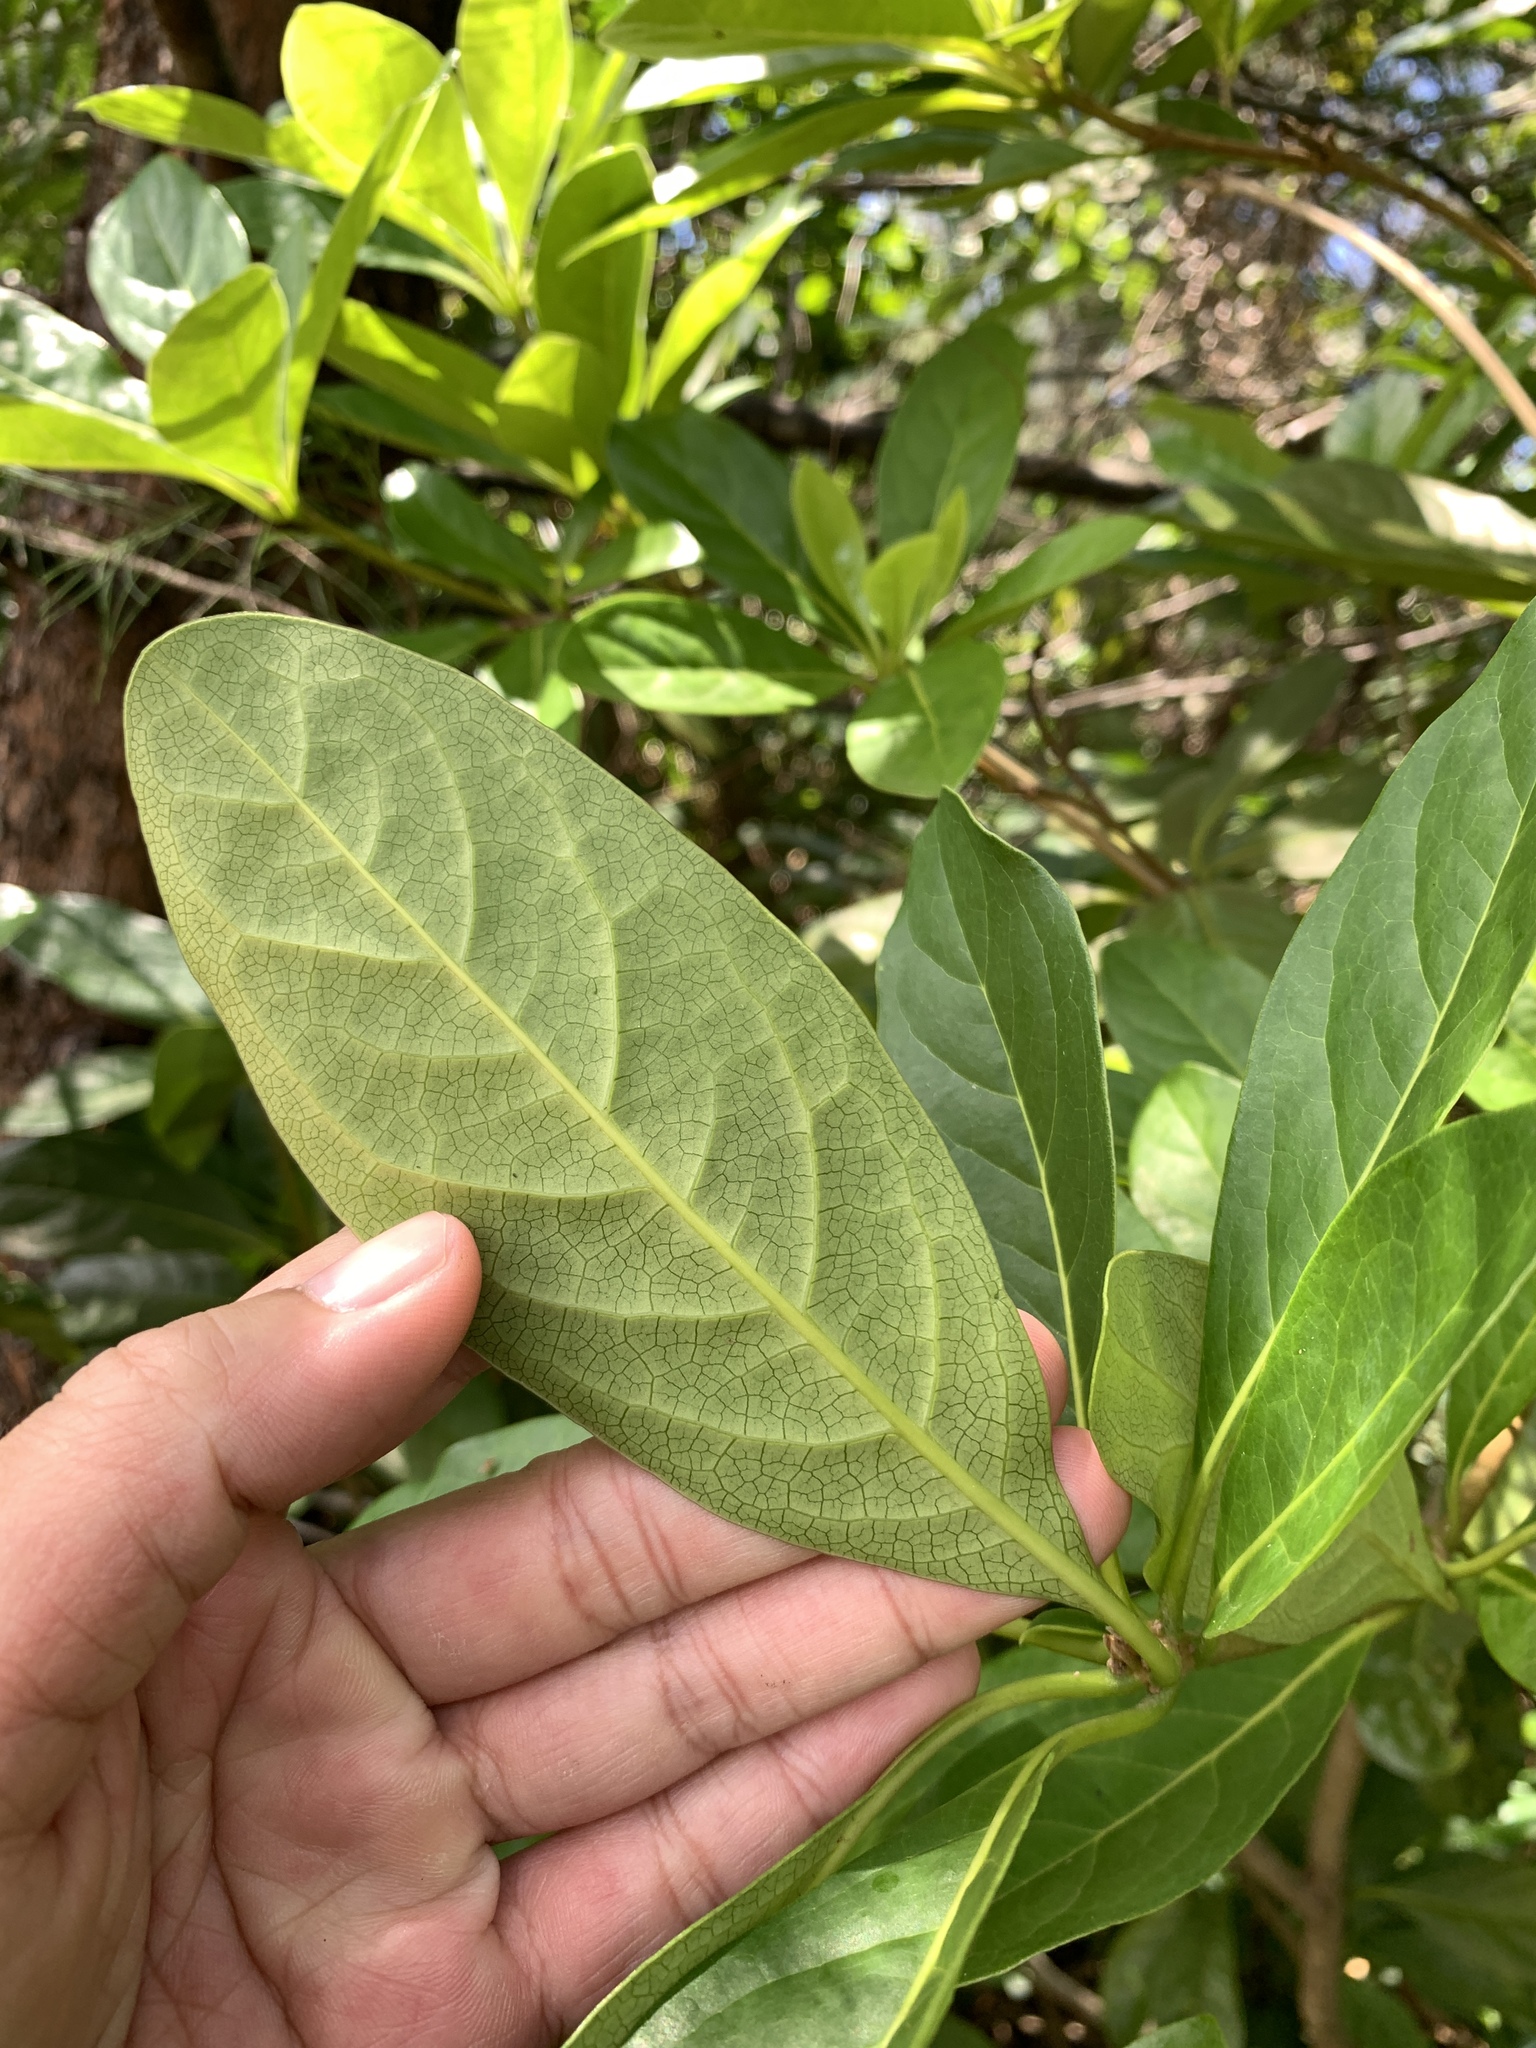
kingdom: Plantae
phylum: Tracheophyta
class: Magnoliopsida
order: Saxifragales
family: Daphniphyllaceae
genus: Daphniphyllum
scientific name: Daphniphyllum glaucescens
